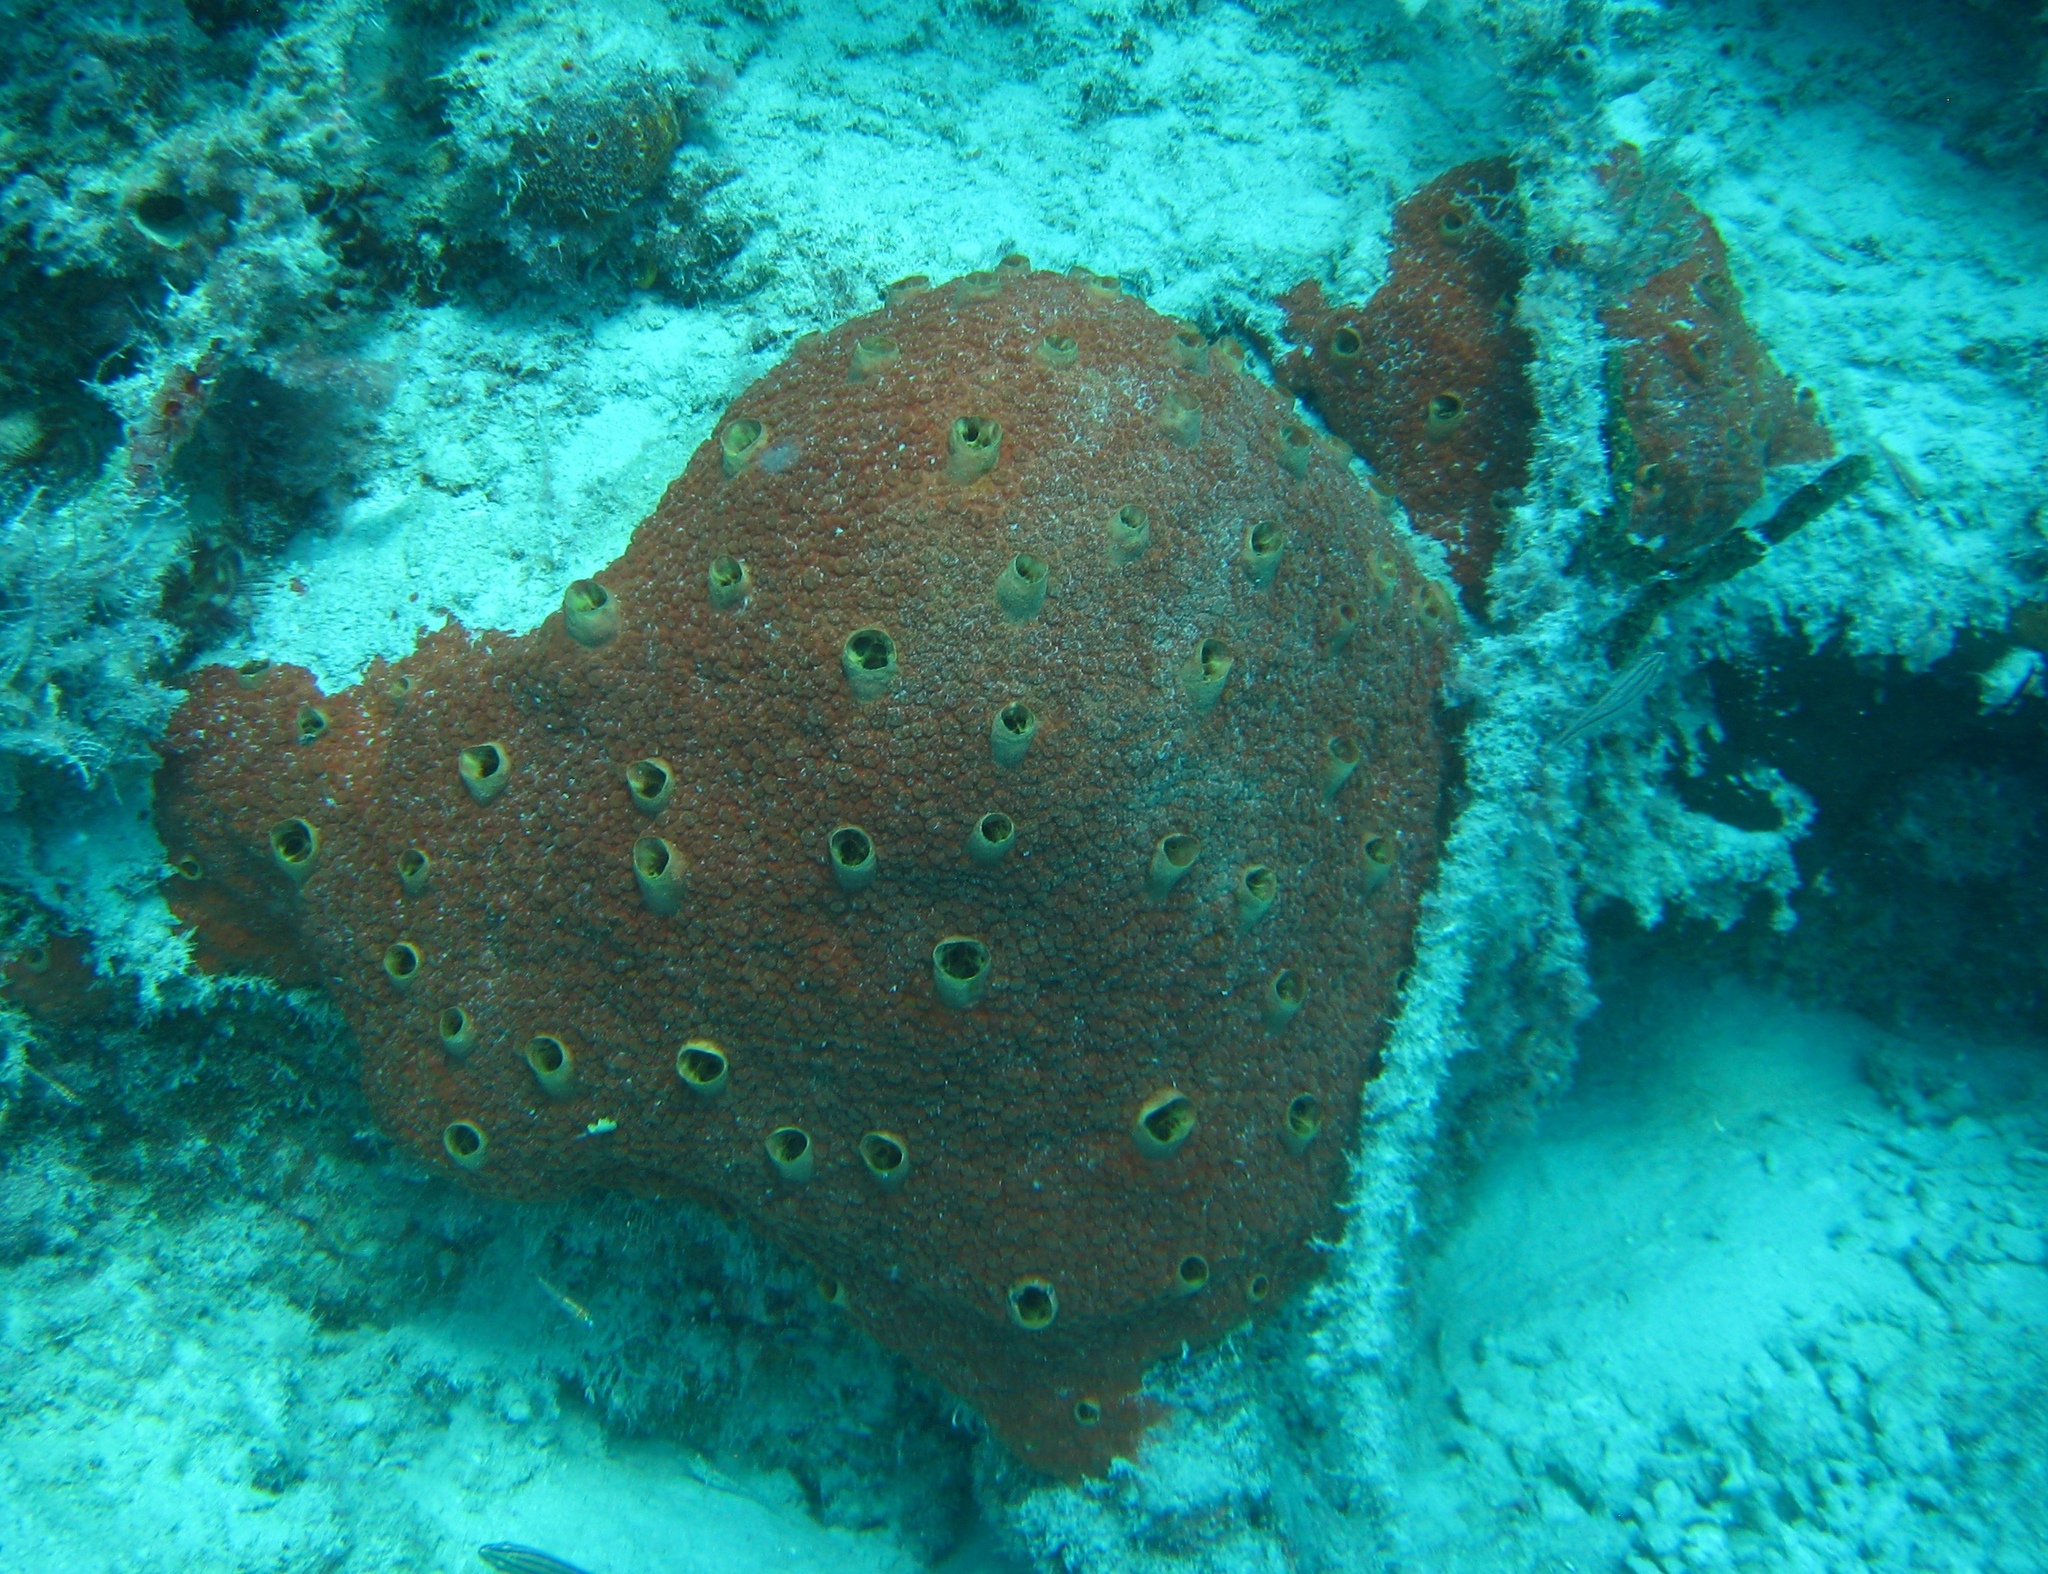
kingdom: Animalia
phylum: Porifera
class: Demospongiae
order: Clionaida
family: Clionaidae
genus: Cliothosa
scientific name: Cliothosa delitrix
